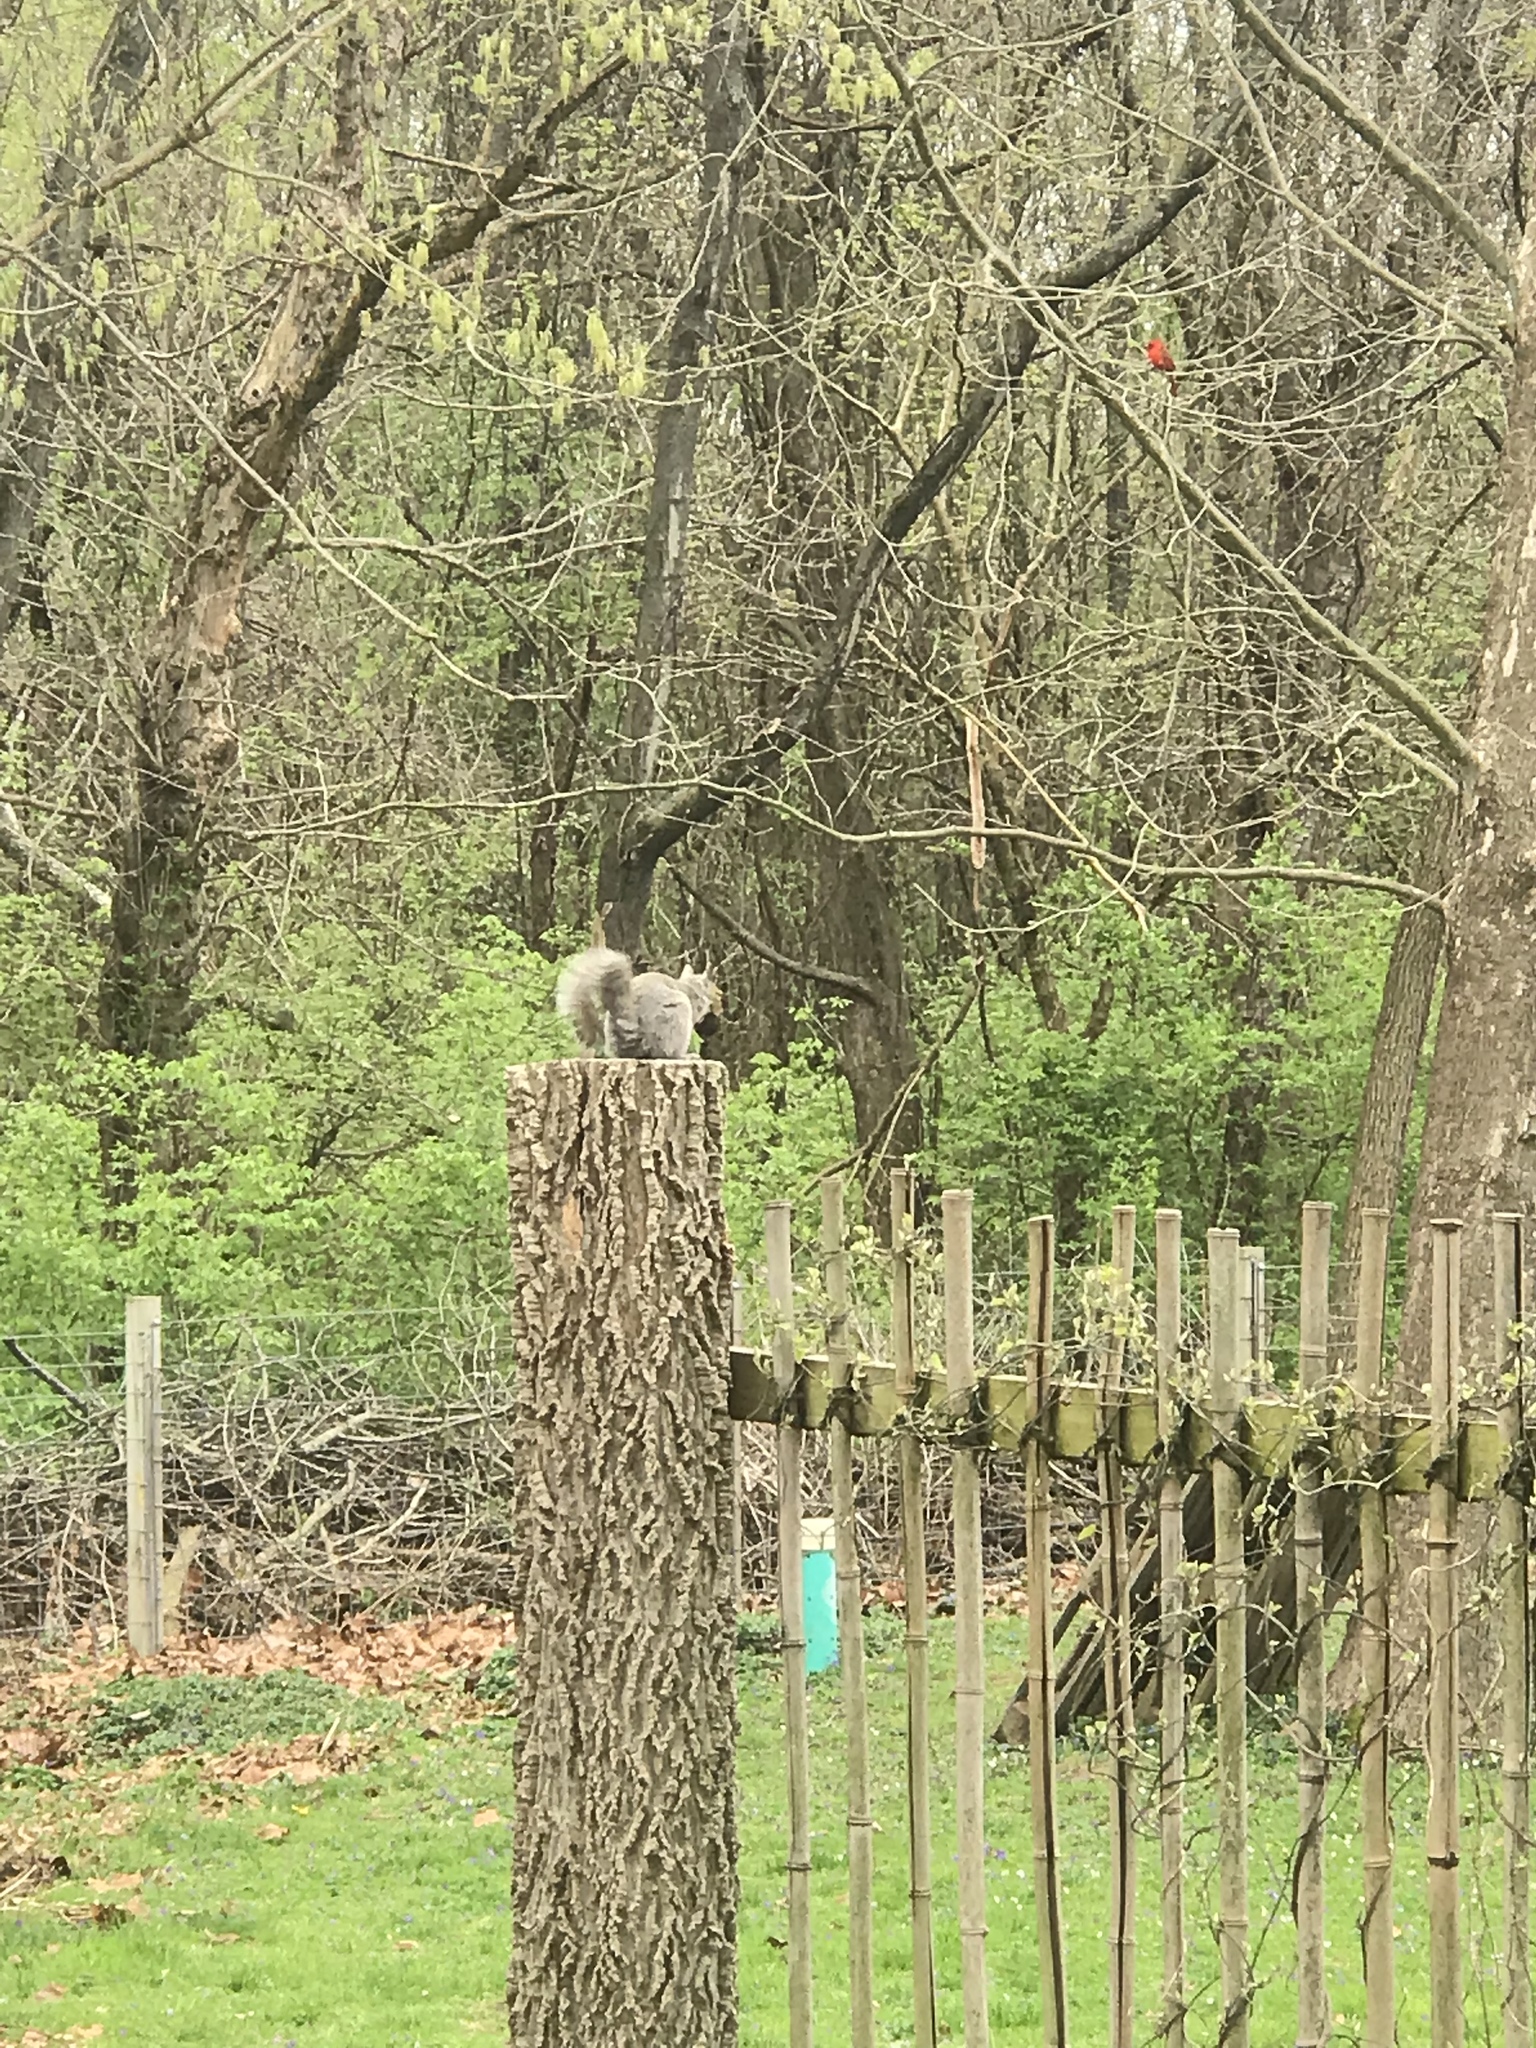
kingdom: Animalia
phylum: Chordata
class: Mammalia
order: Rodentia
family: Sciuridae
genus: Sciurus
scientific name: Sciurus carolinensis
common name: Eastern gray squirrel
